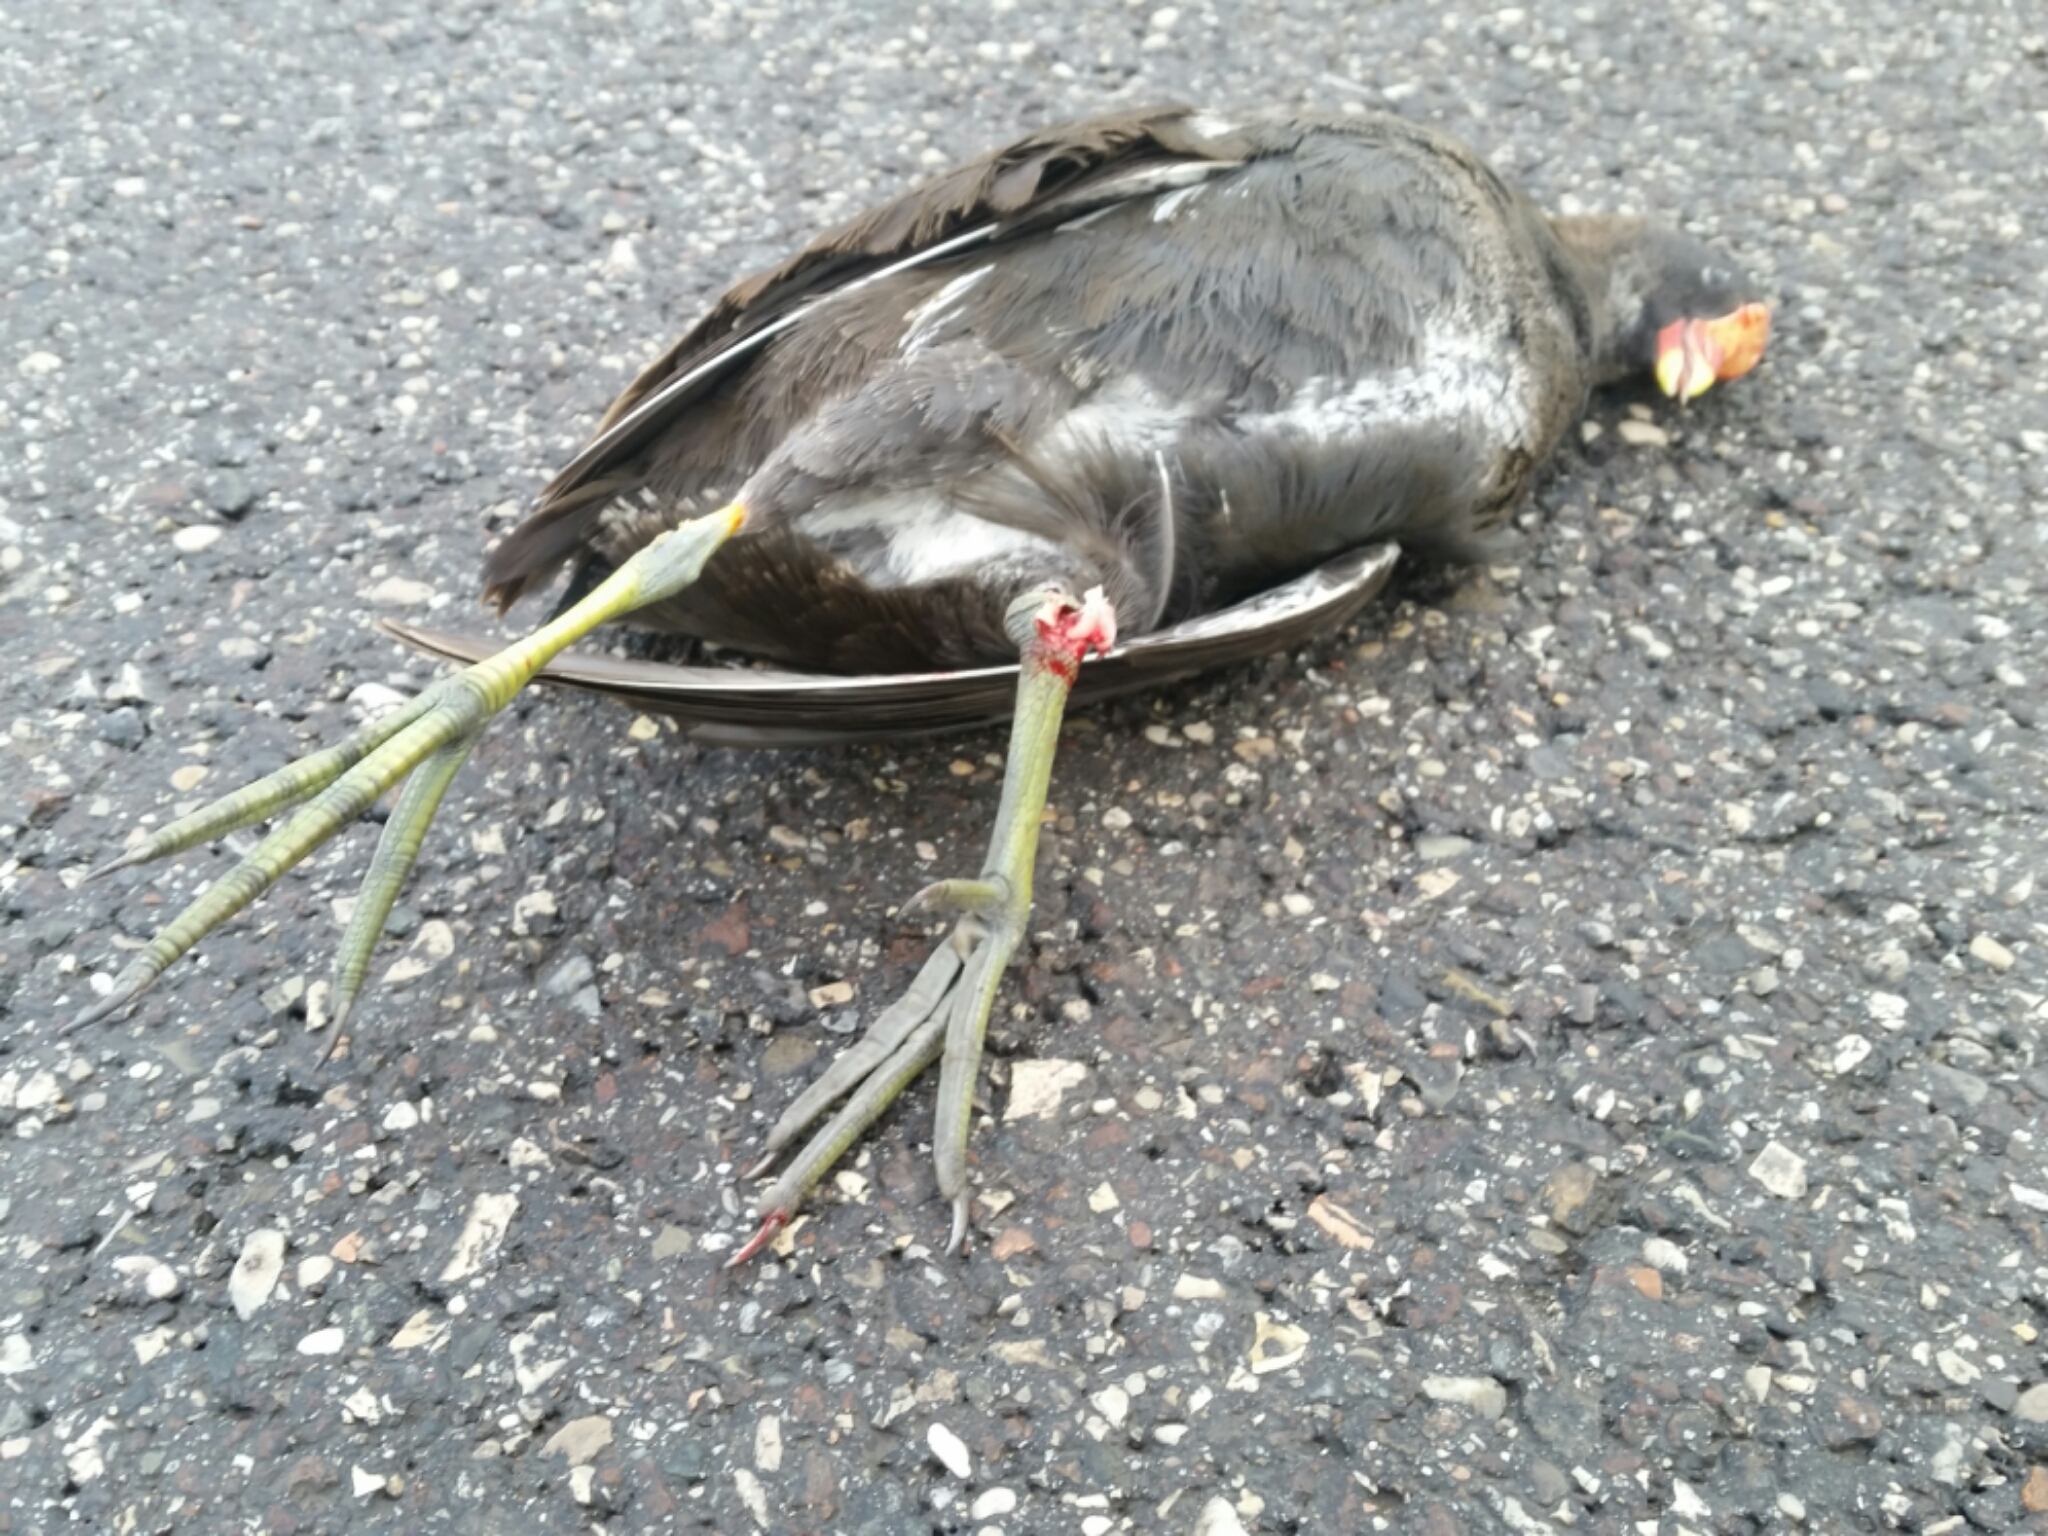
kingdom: Animalia
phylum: Chordata
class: Aves
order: Gruiformes
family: Rallidae
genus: Gallinula
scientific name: Gallinula chloropus
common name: Common moorhen
